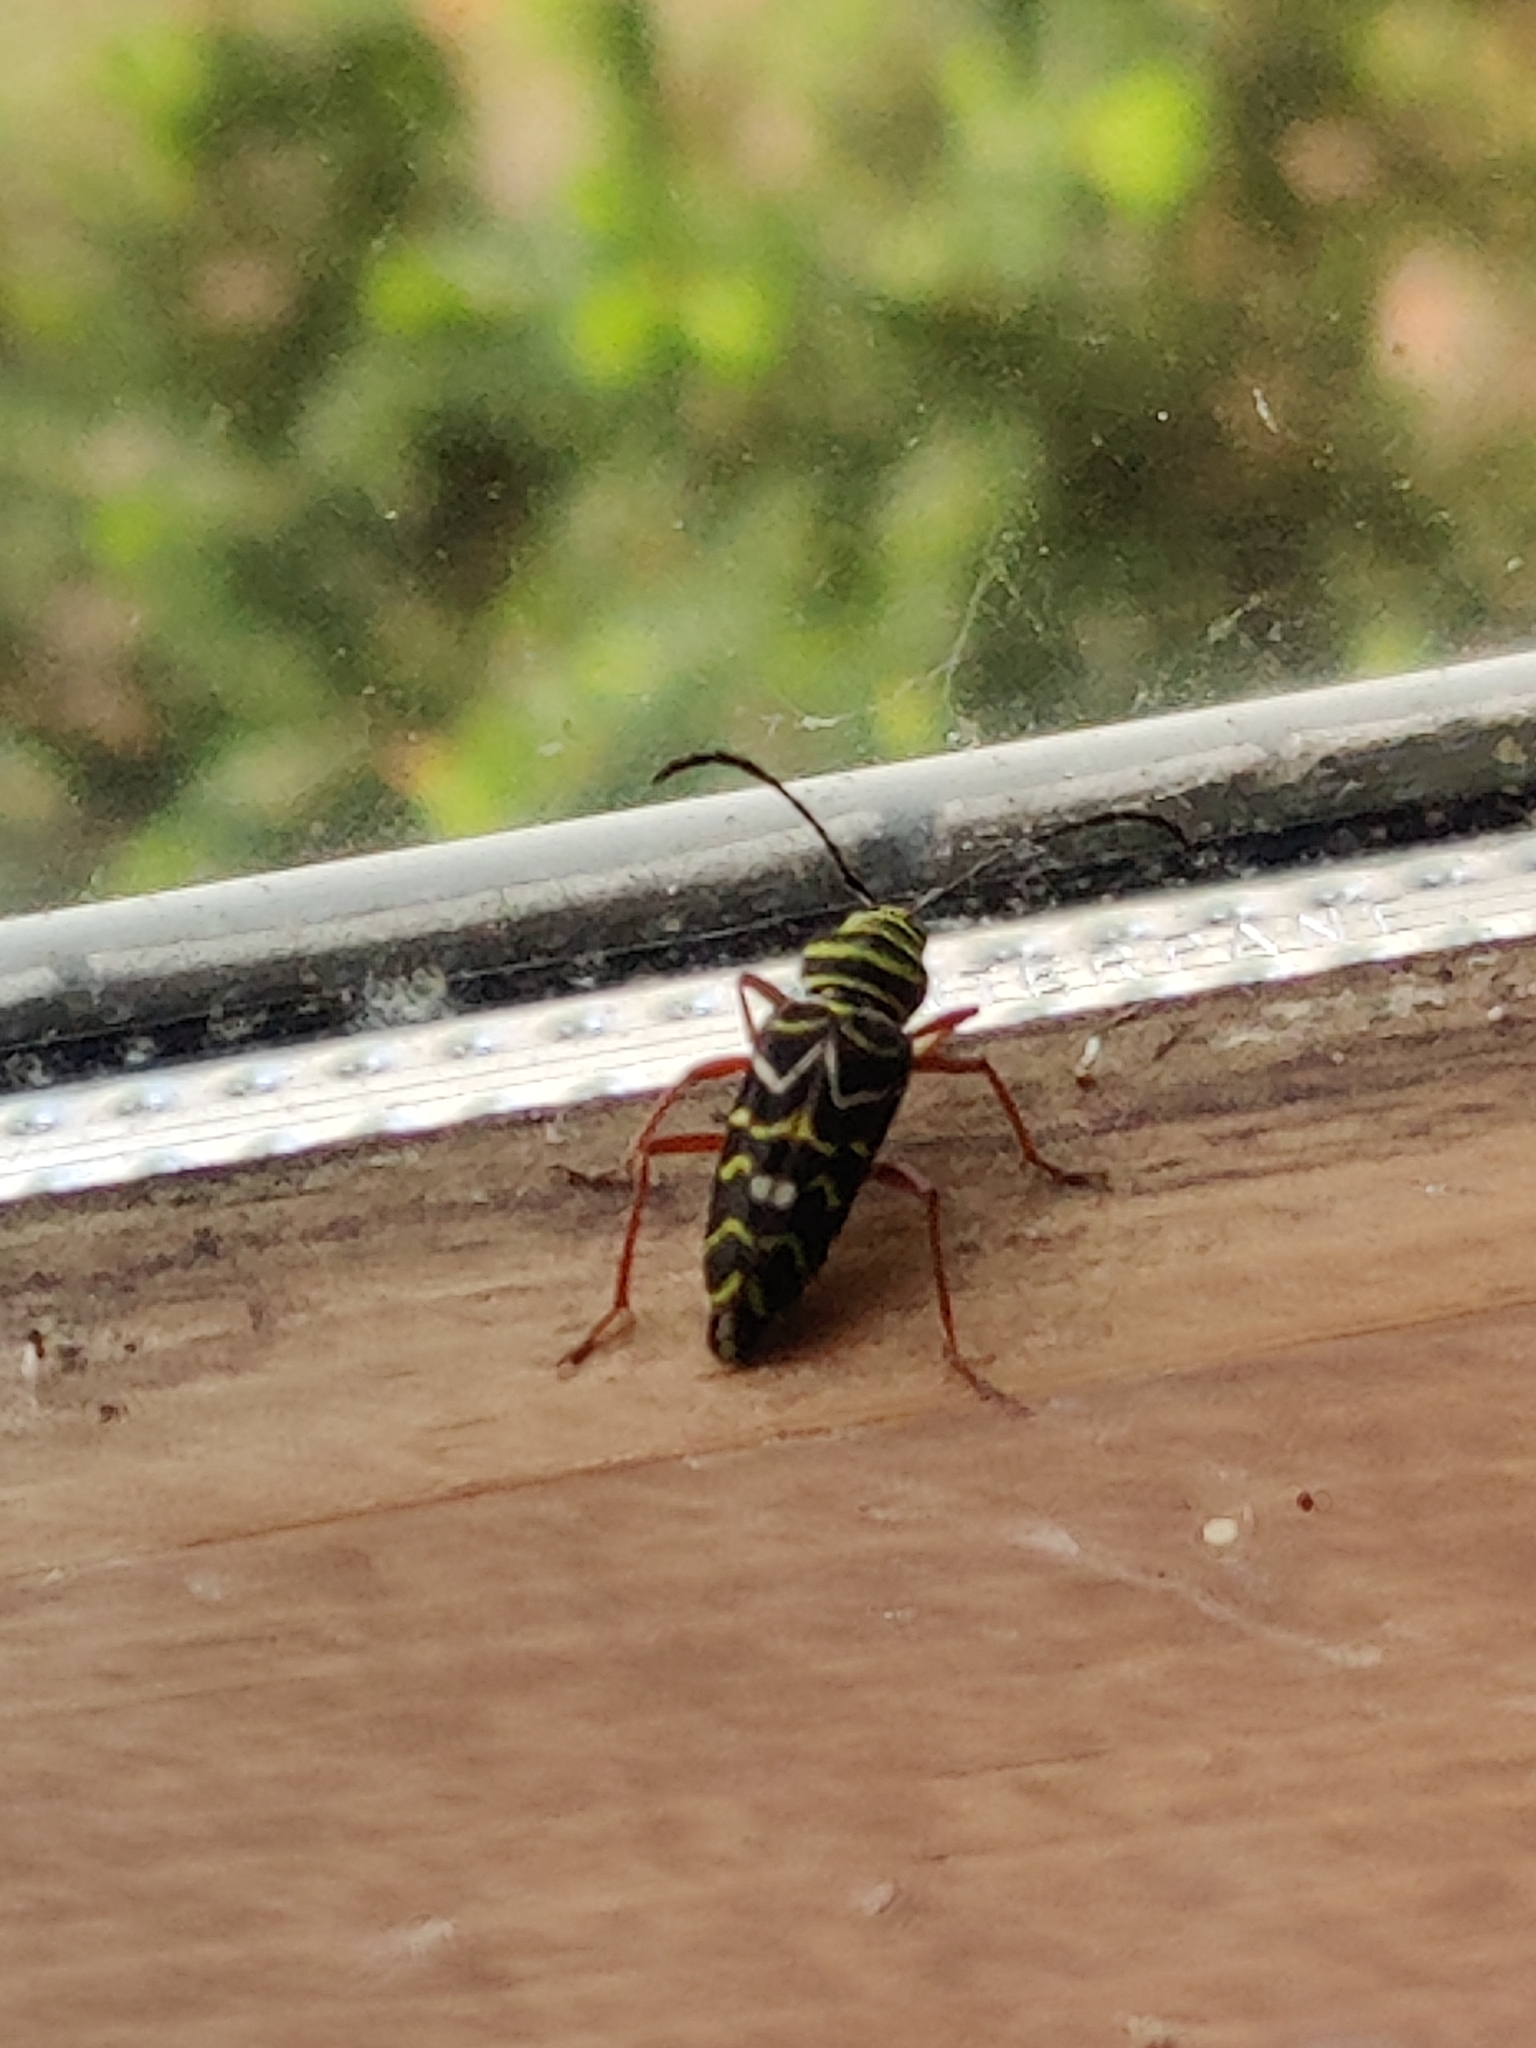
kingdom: Animalia
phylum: Arthropoda
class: Insecta
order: Coleoptera
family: Cerambycidae
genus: Megacyllene
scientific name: Megacyllene caryae
